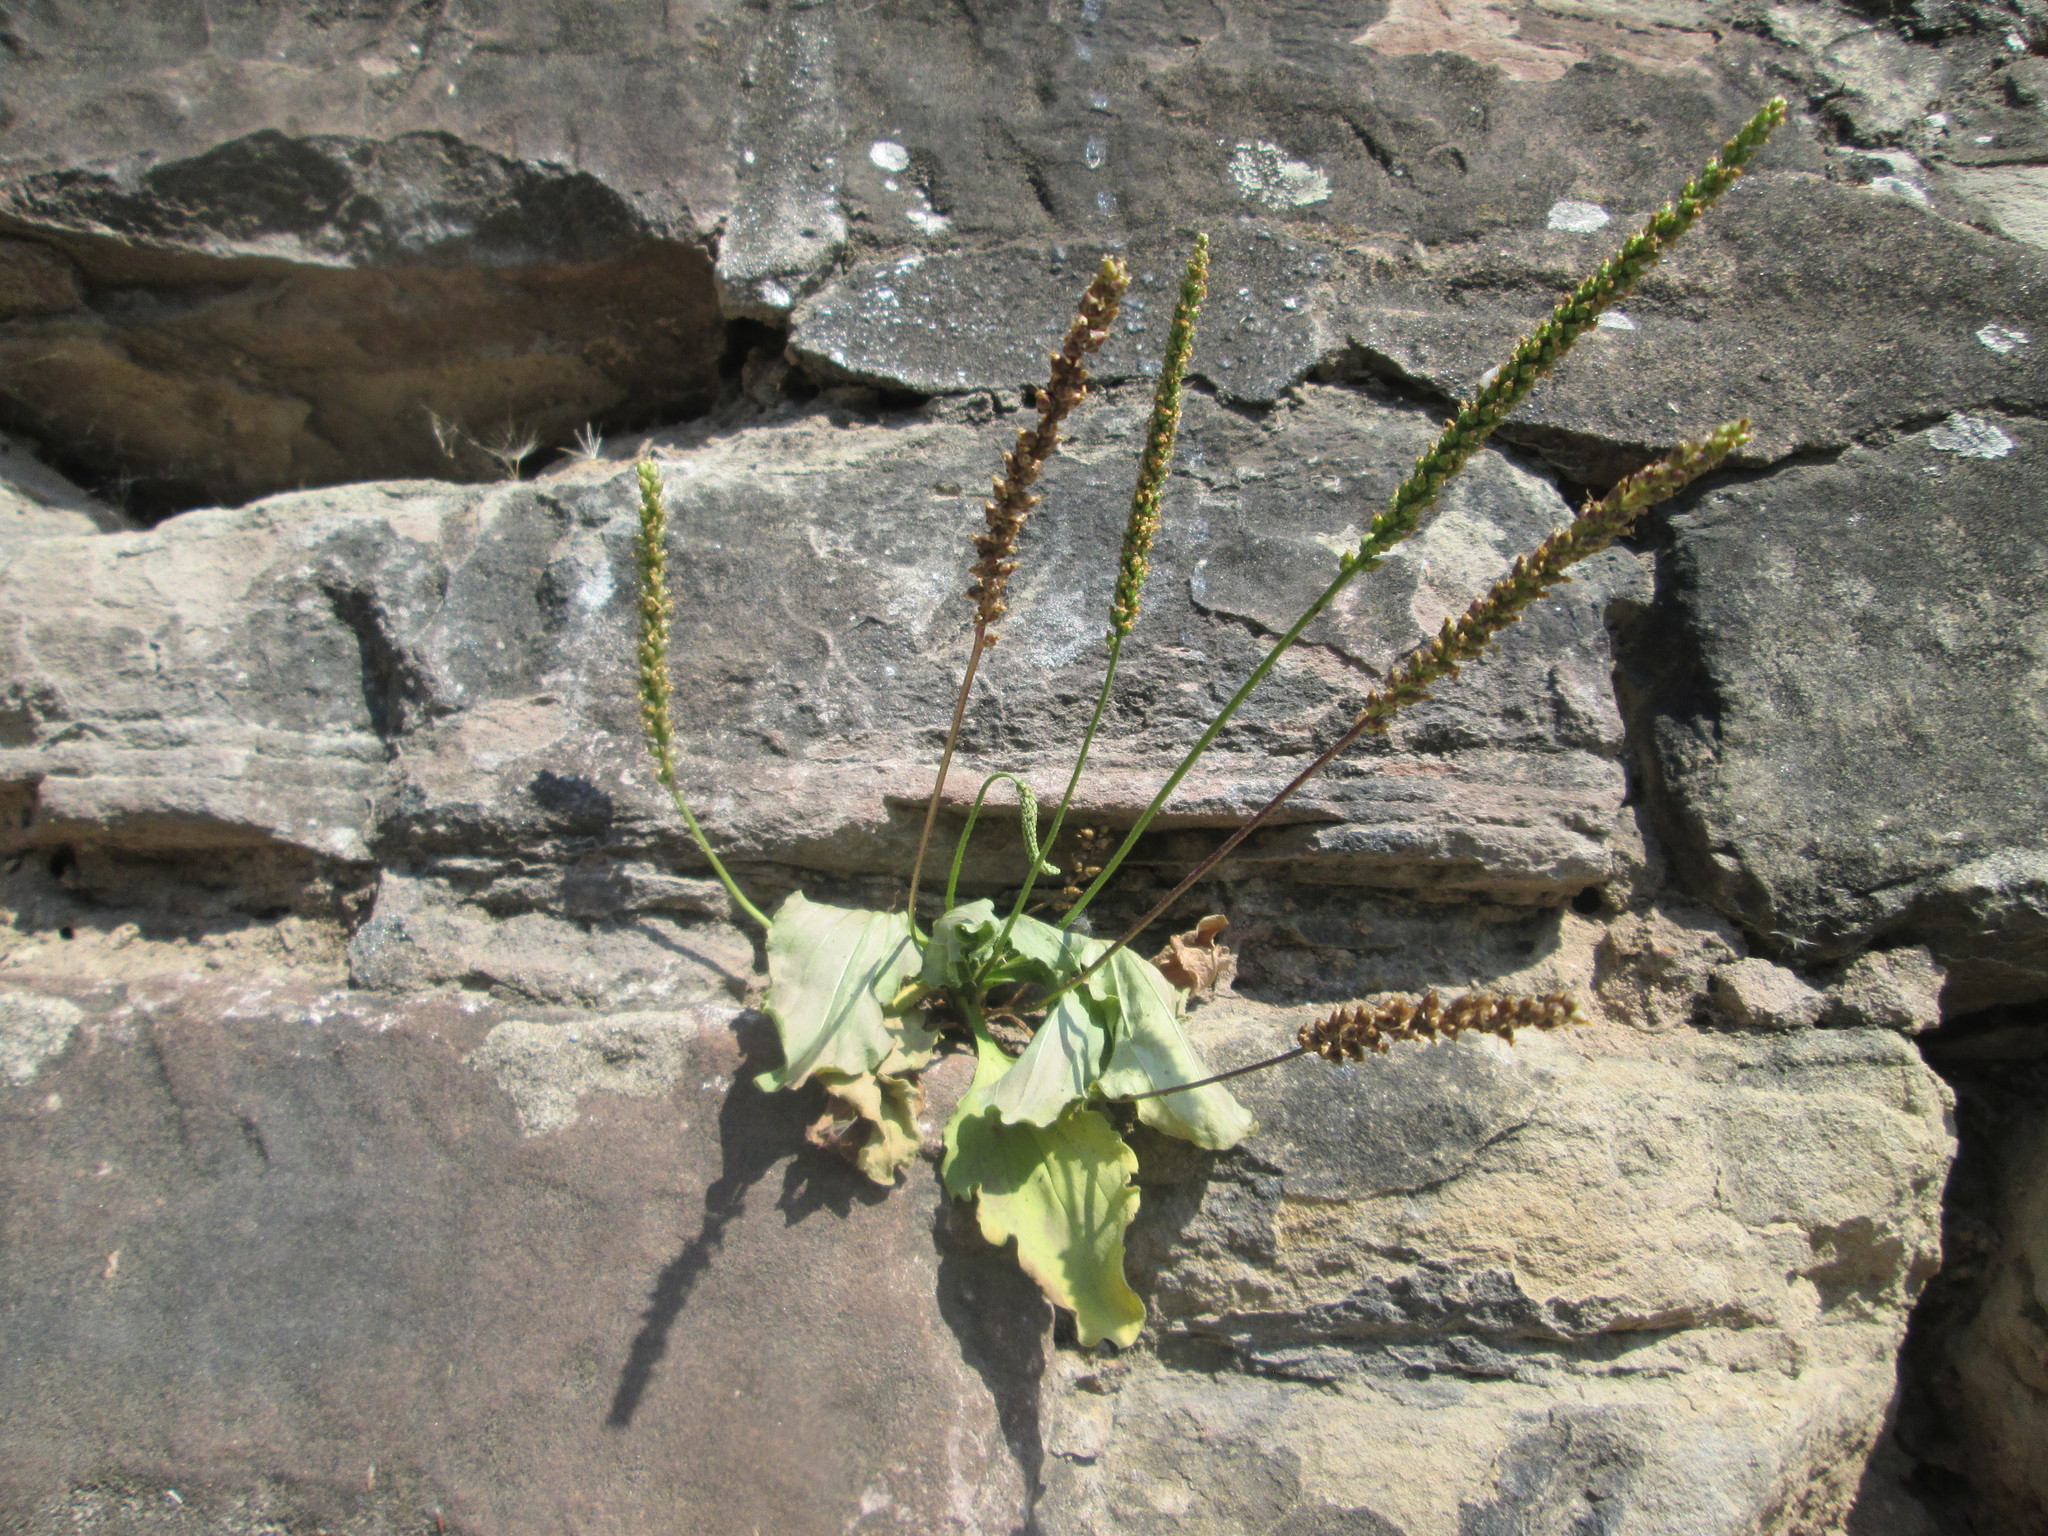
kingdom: Plantae
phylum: Tracheophyta
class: Magnoliopsida
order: Lamiales
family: Plantaginaceae
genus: Plantago
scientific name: Plantago major
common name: Common plantain
